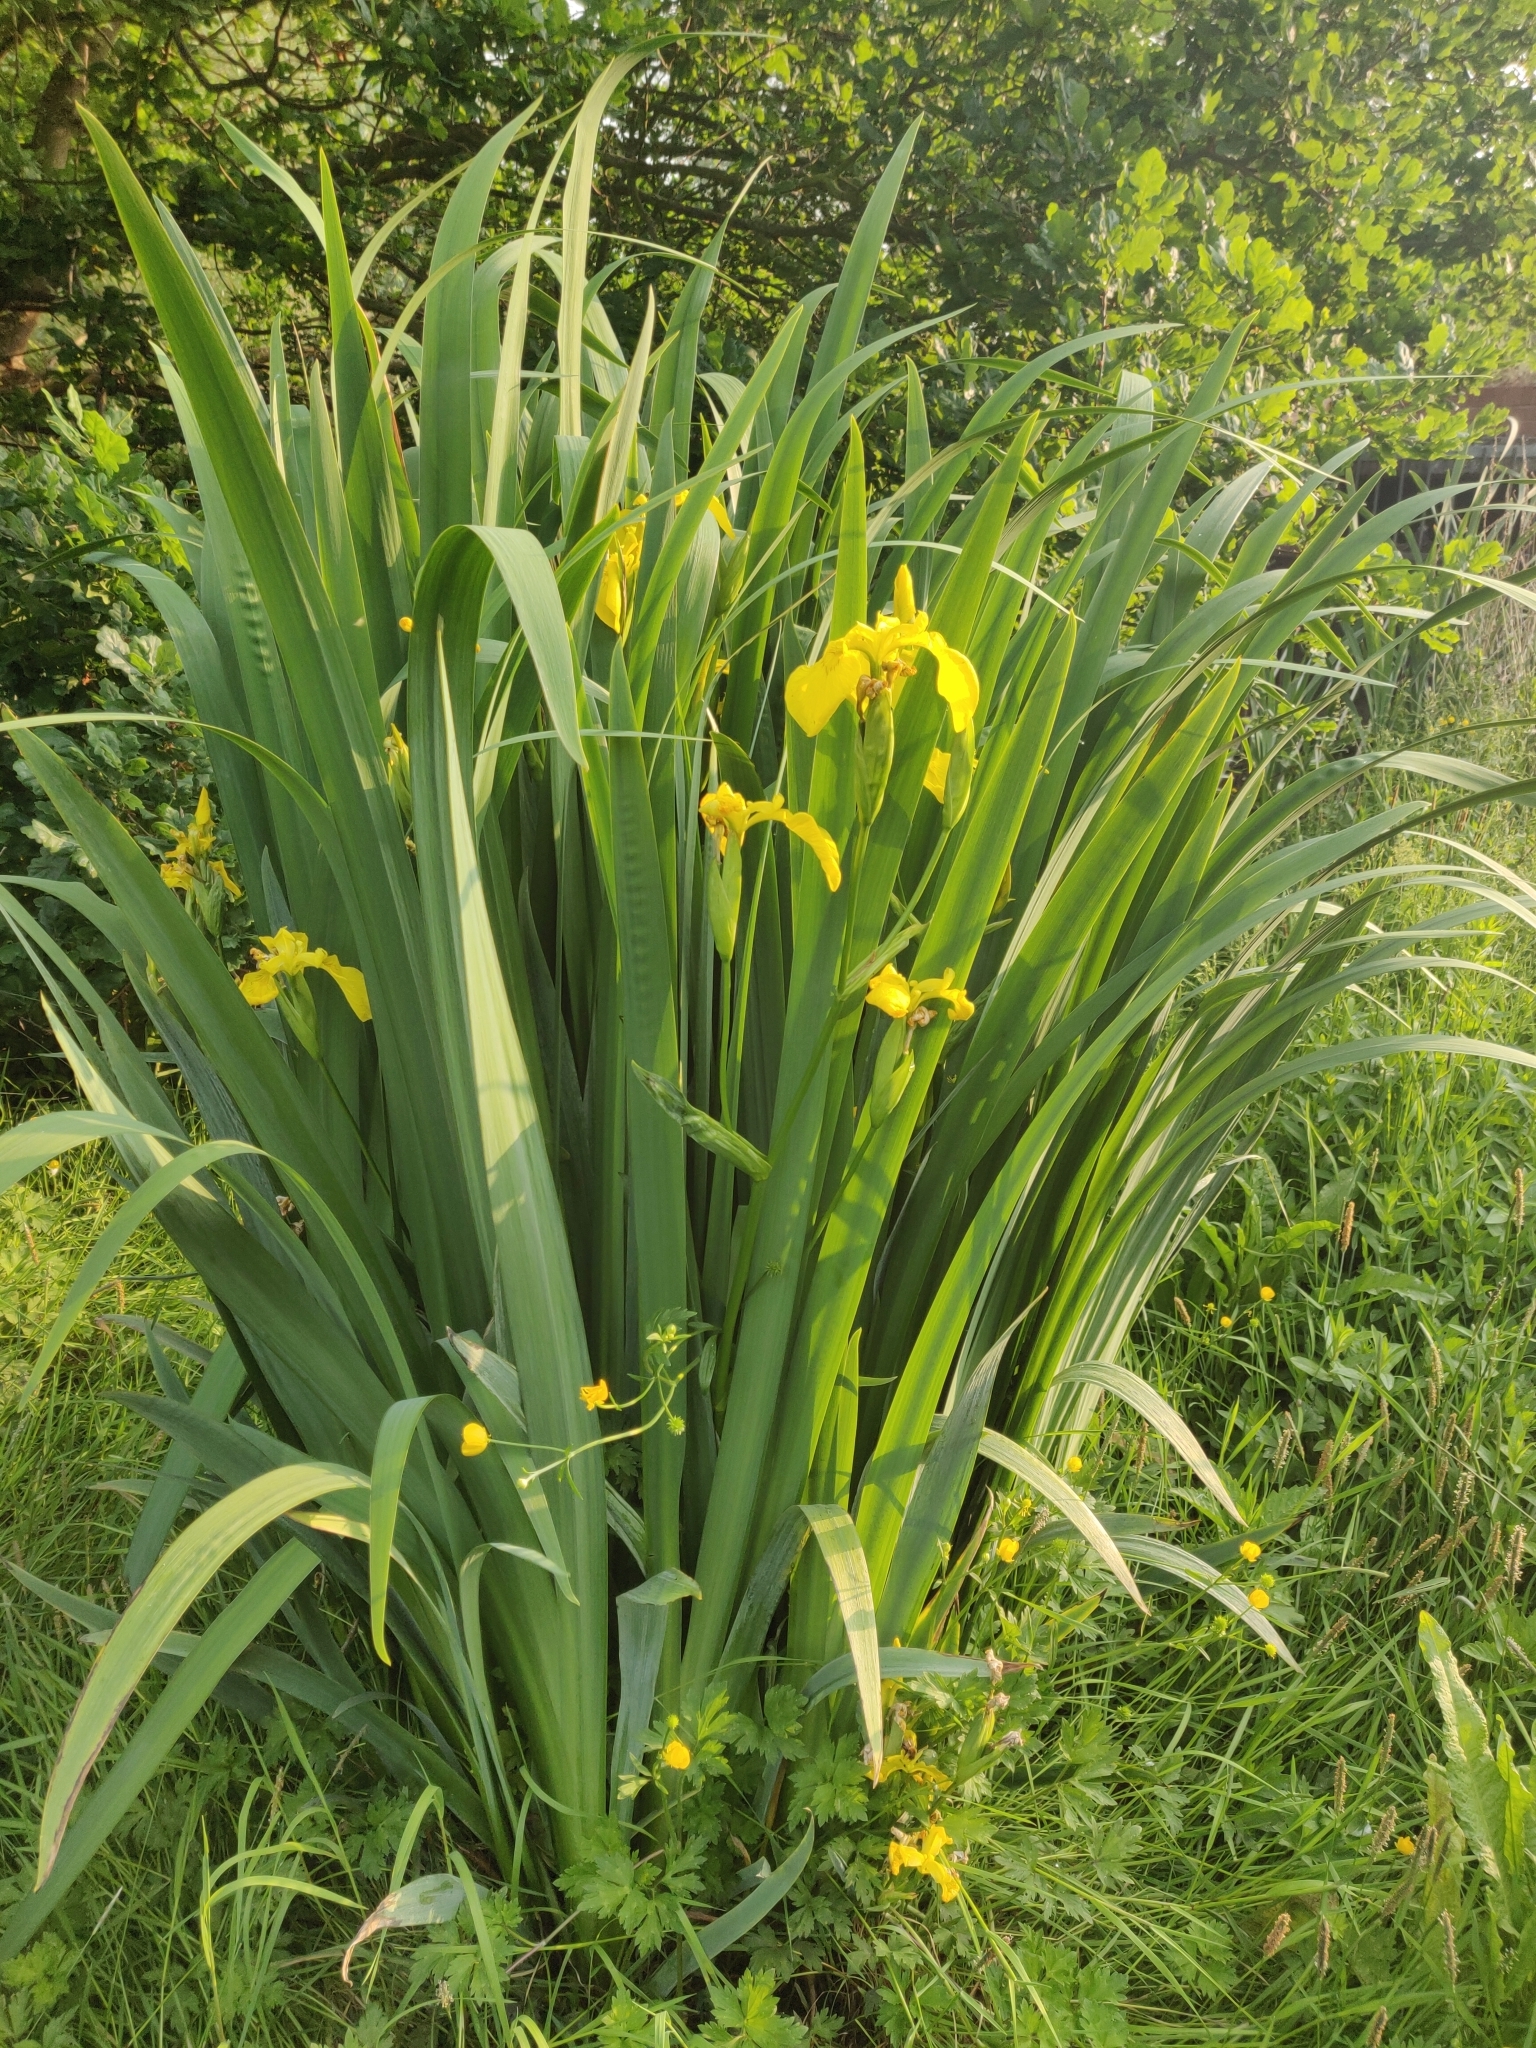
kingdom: Plantae
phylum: Tracheophyta
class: Liliopsida
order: Asparagales
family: Iridaceae
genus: Iris
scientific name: Iris pseudacorus
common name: Yellow flag
